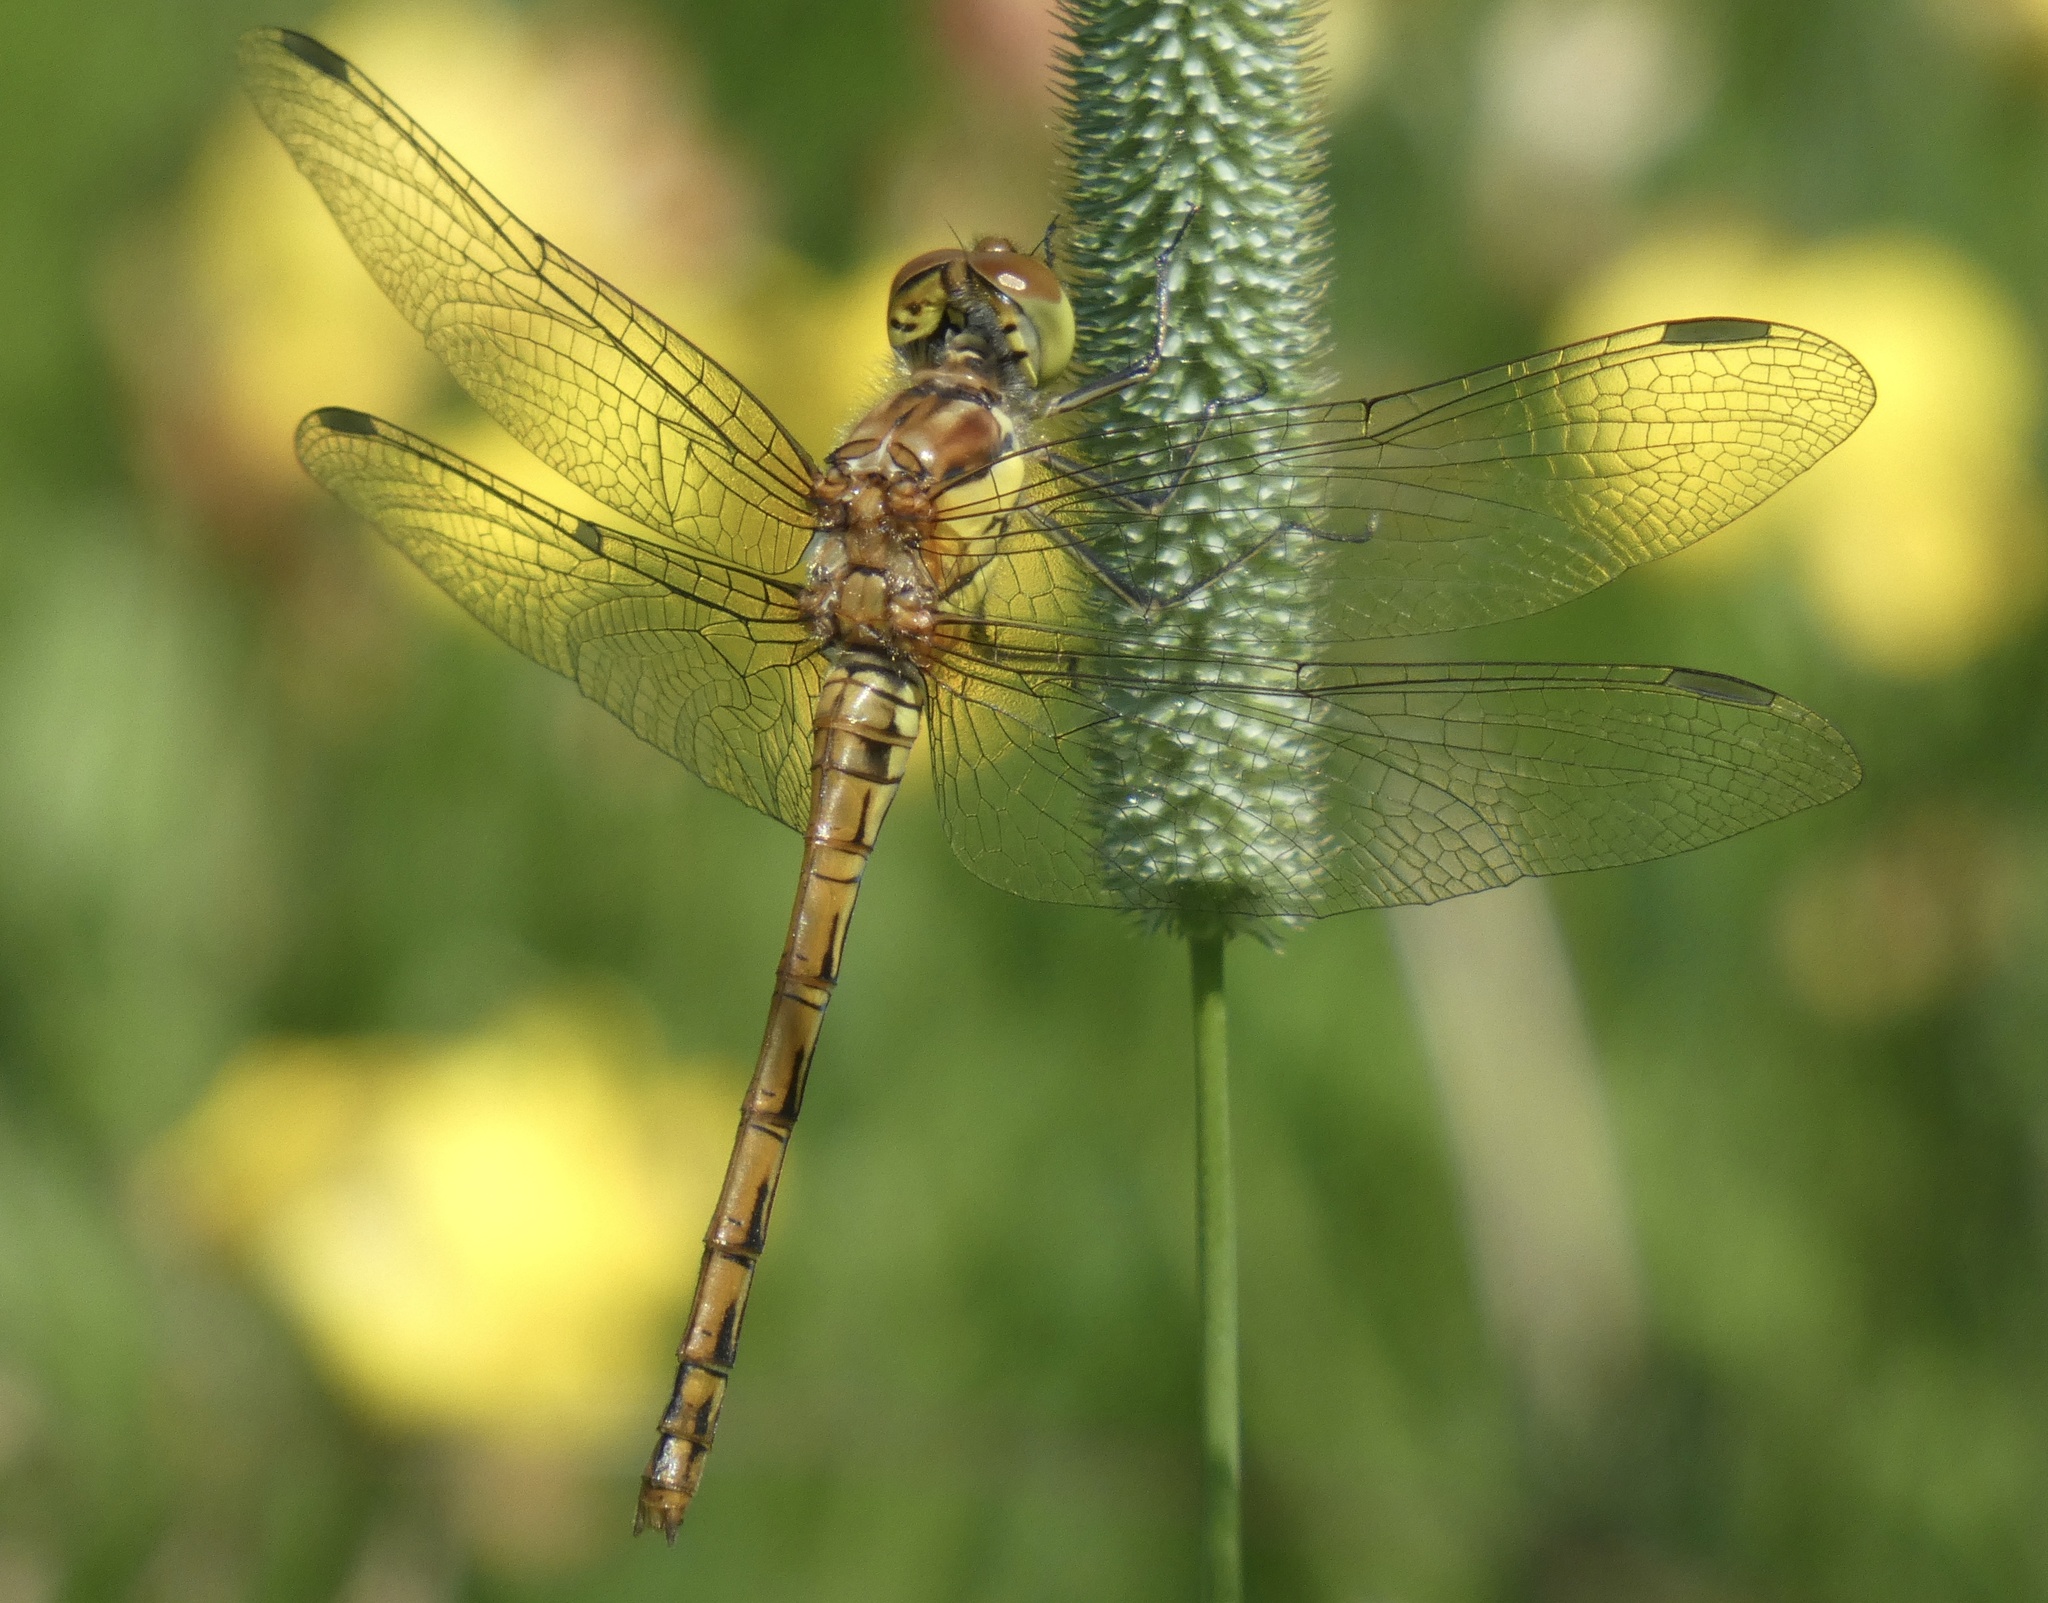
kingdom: Animalia
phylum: Arthropoda
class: Insecta
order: Odonata
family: Libellulidae
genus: Sympetrum
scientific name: Sympetrum striolatum
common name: Common darter
